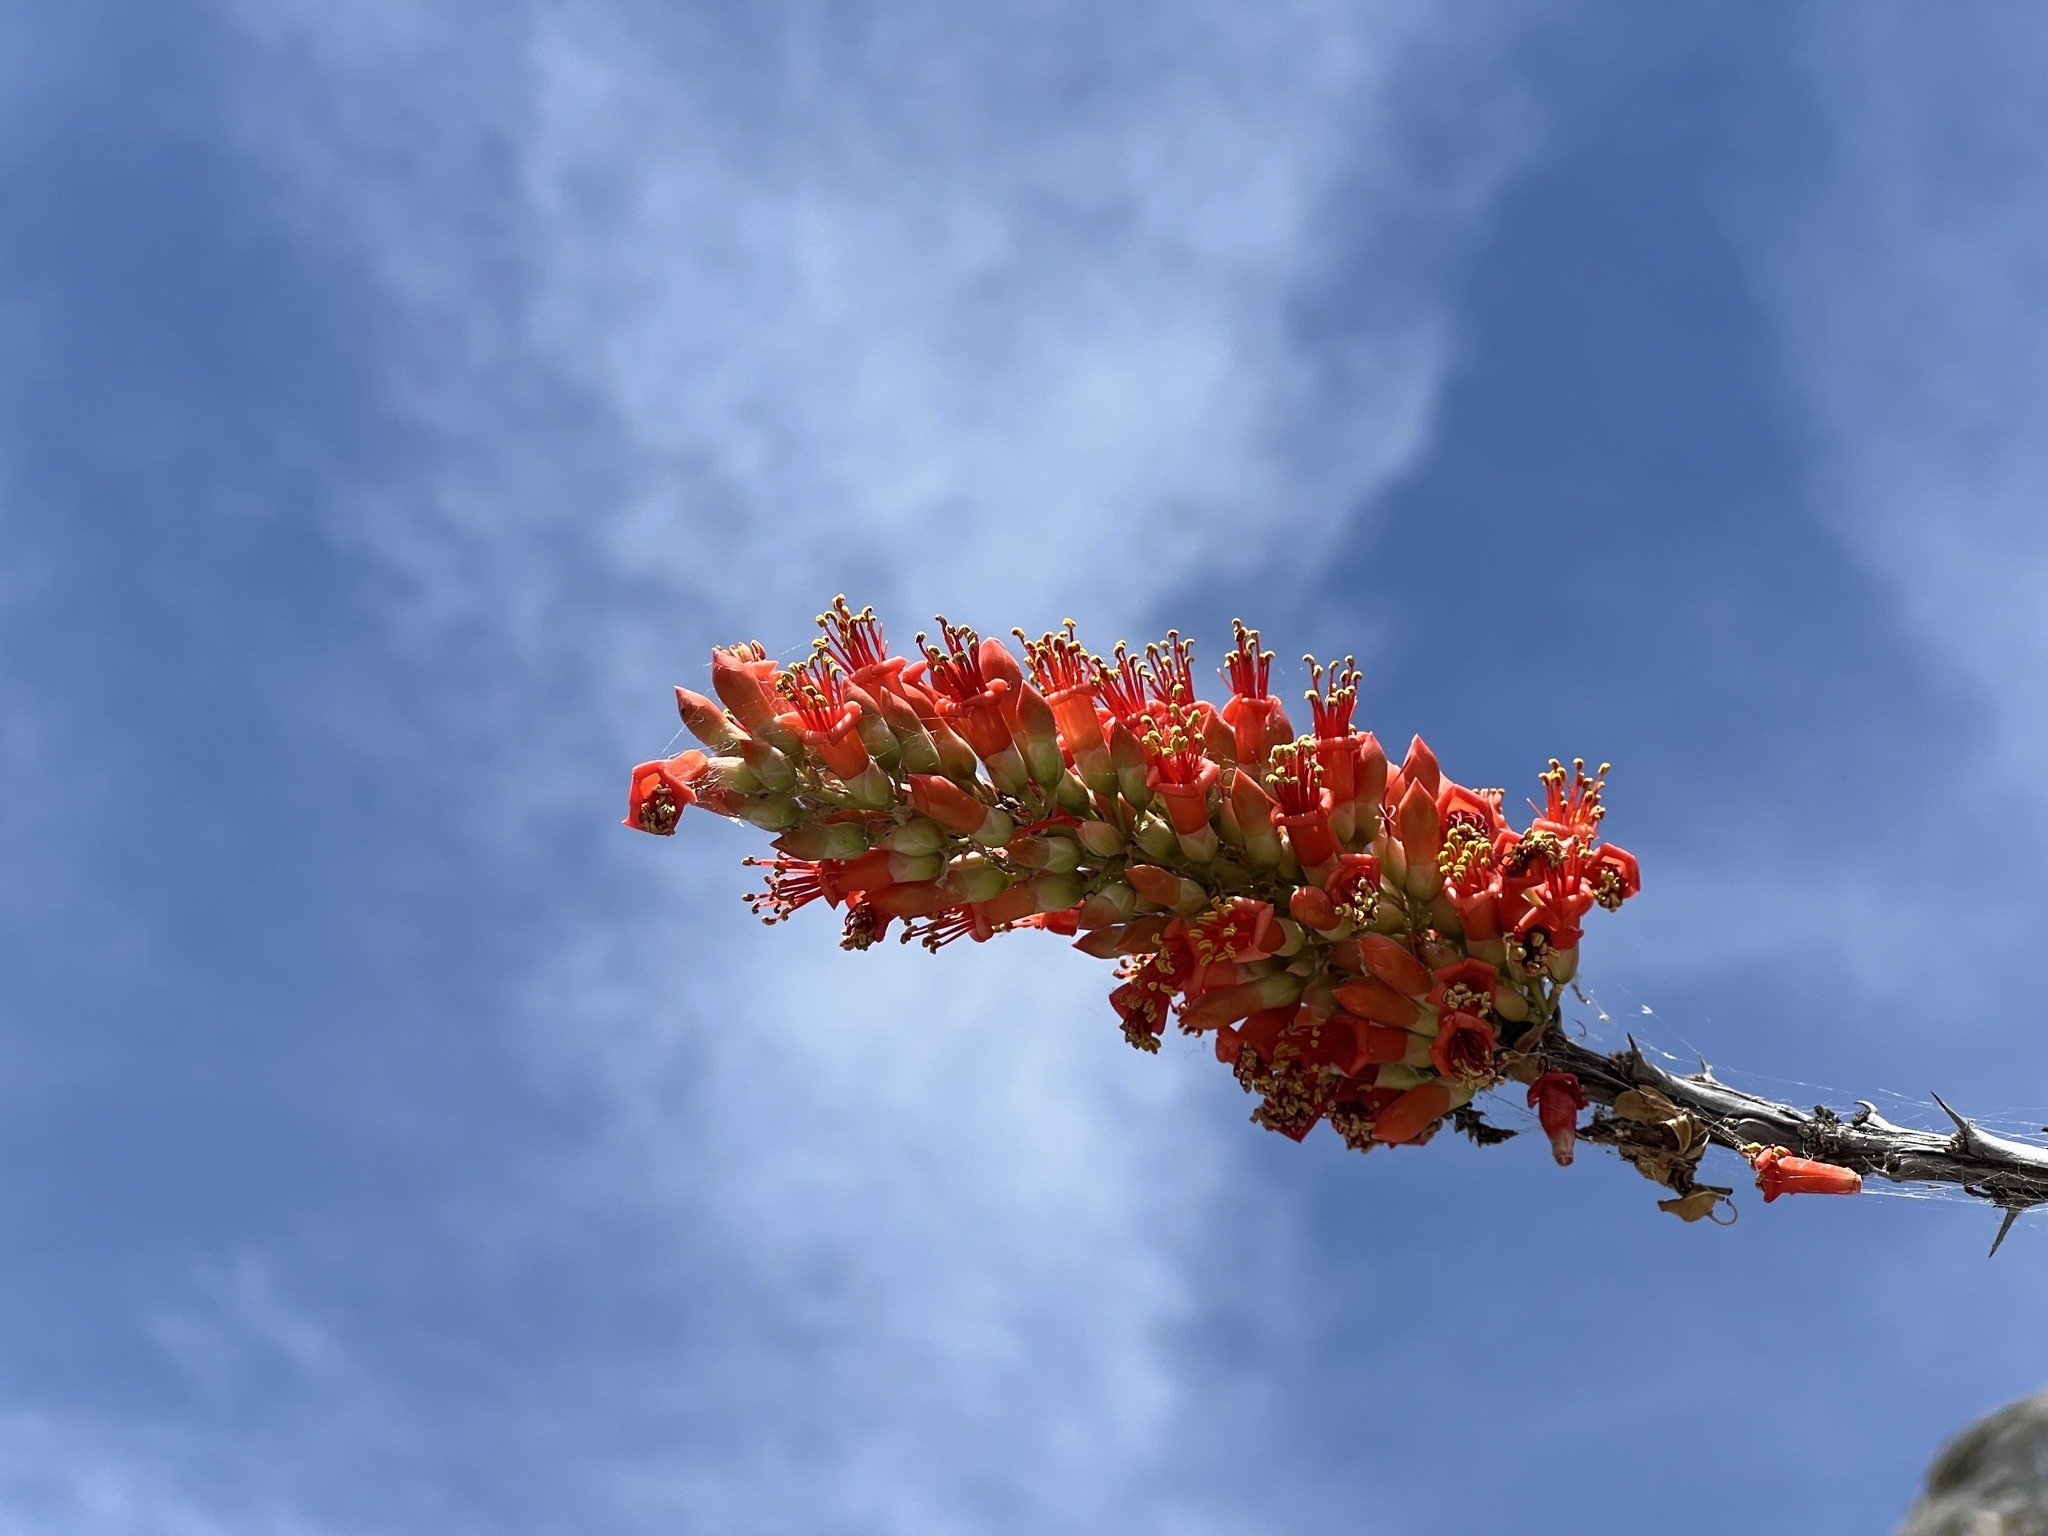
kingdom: Plantae
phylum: Tracheophyta
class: Magnoliopsida
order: Ericales
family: Fouquieriaceae
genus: Fouquieria
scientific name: Fouquieria splendens
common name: Vine-cactus
